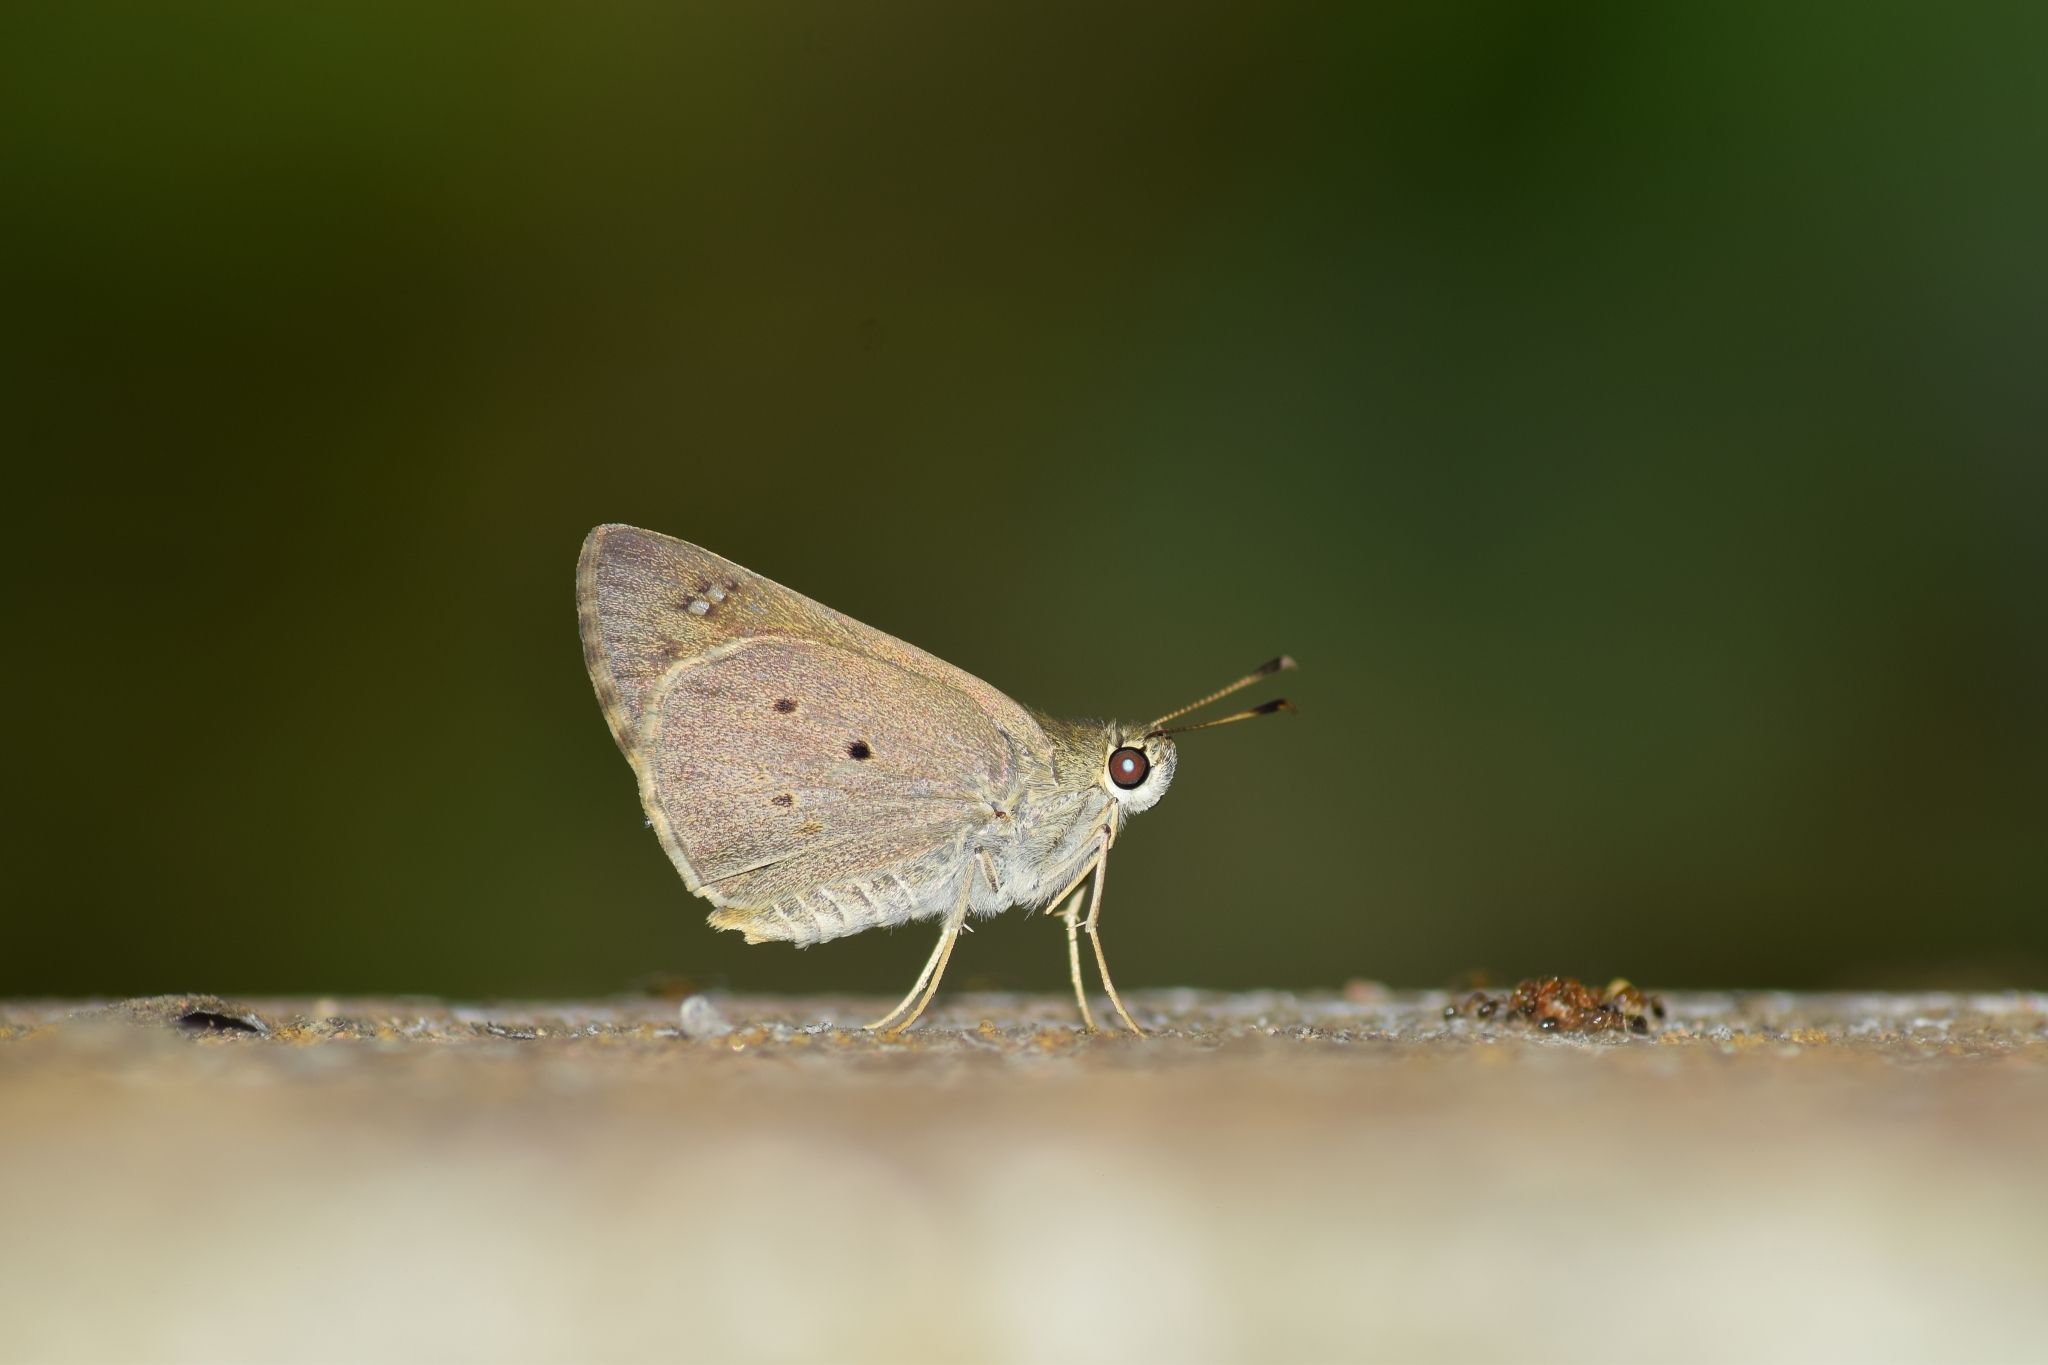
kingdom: Animalia
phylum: Arthropoda
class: Insecta
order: Lepidoptera
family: Hesperiidae
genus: Suastus
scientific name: Suastus gremius
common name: Indian palm bob
